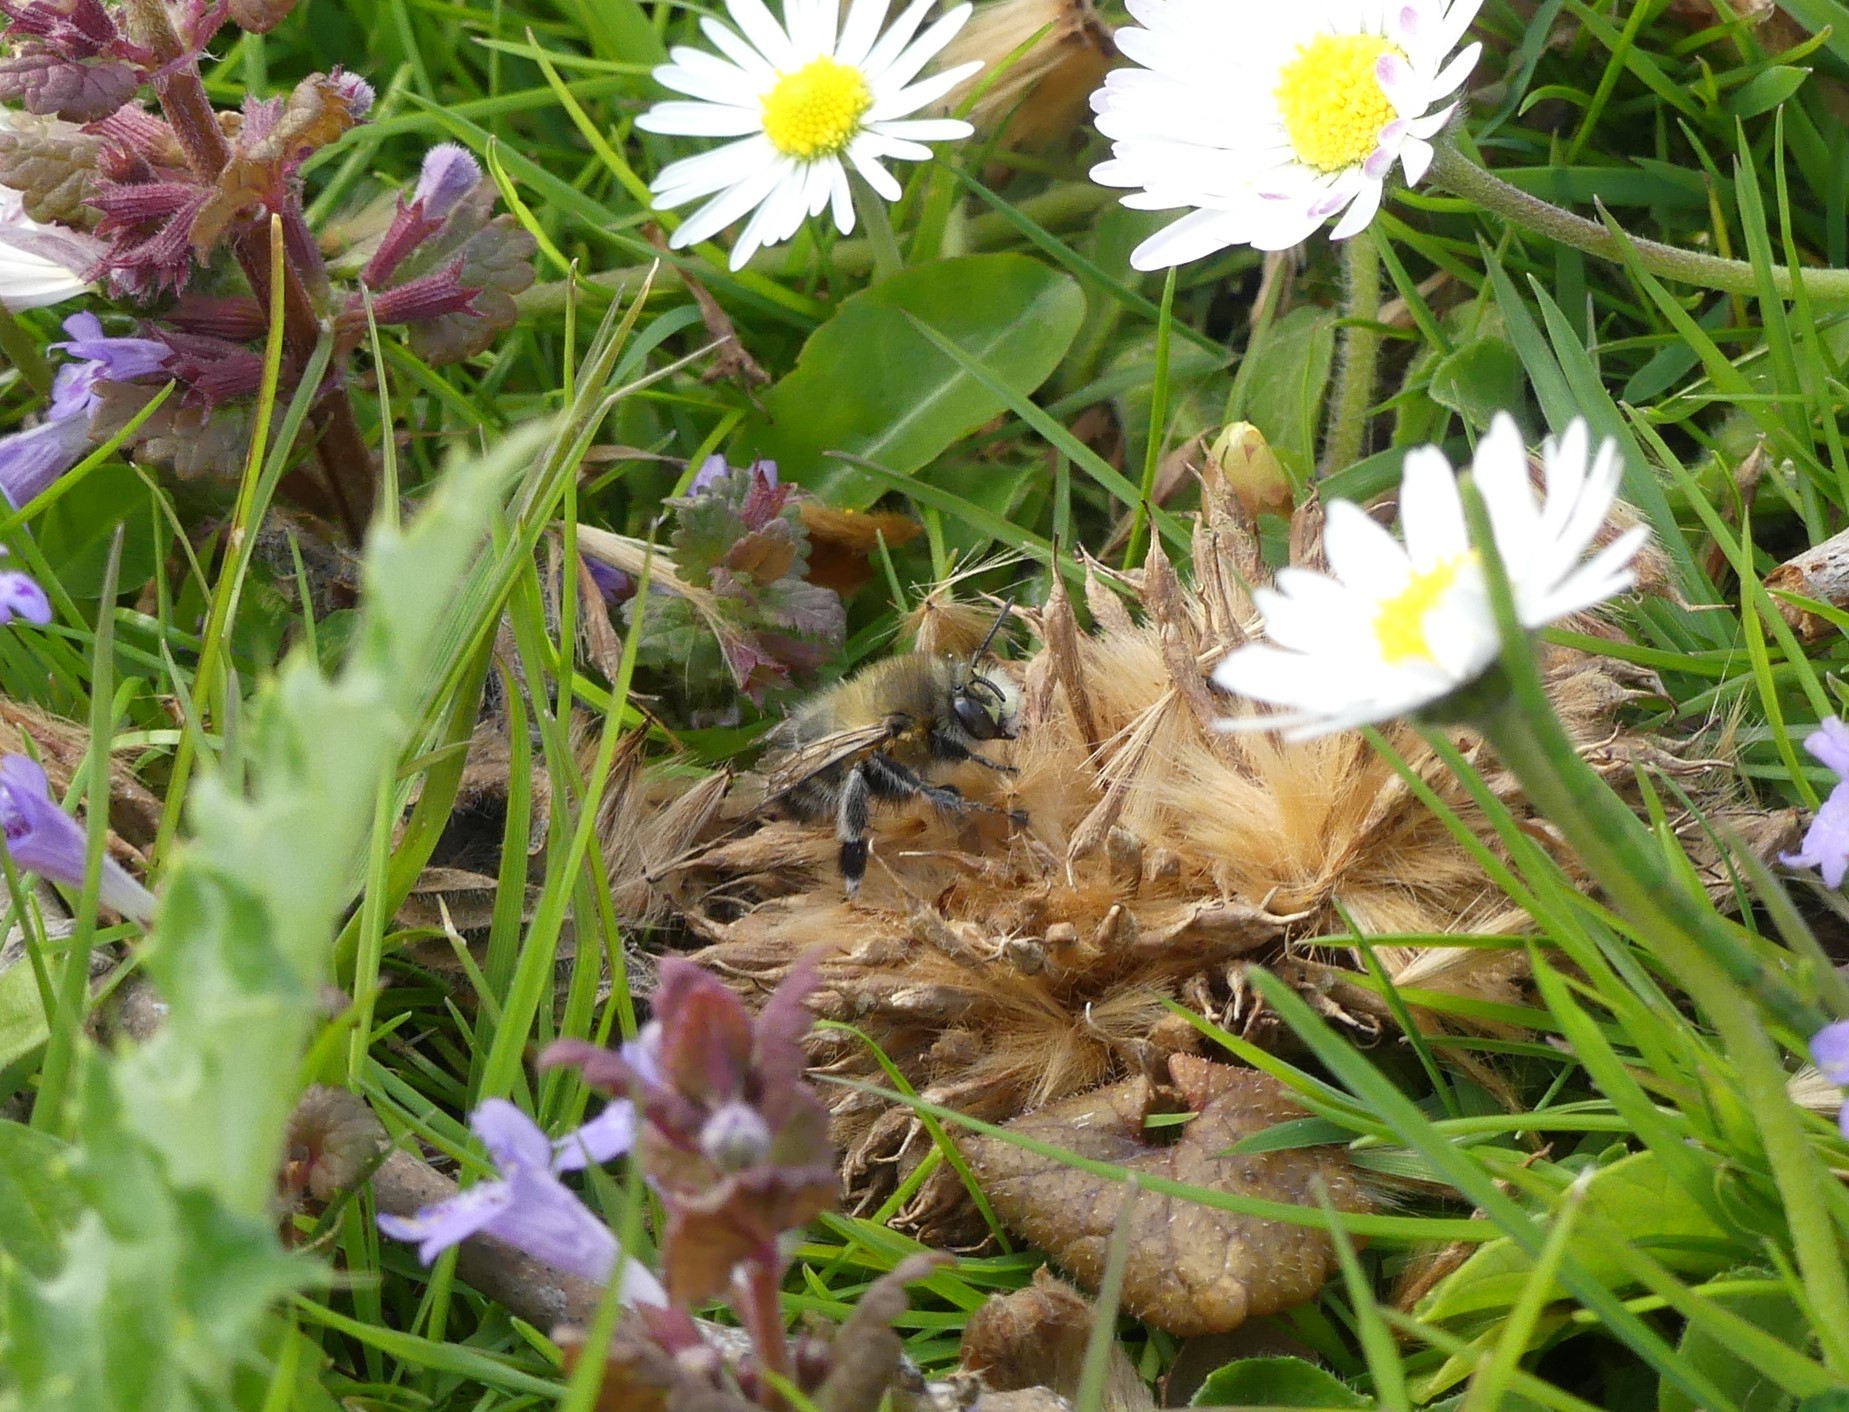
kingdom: Animalia
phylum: Arthropoda
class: Insecta
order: Hymenoptera
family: Apidae
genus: Anthophora
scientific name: Anthophora plumipes
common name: Hairy-footed flower bee
